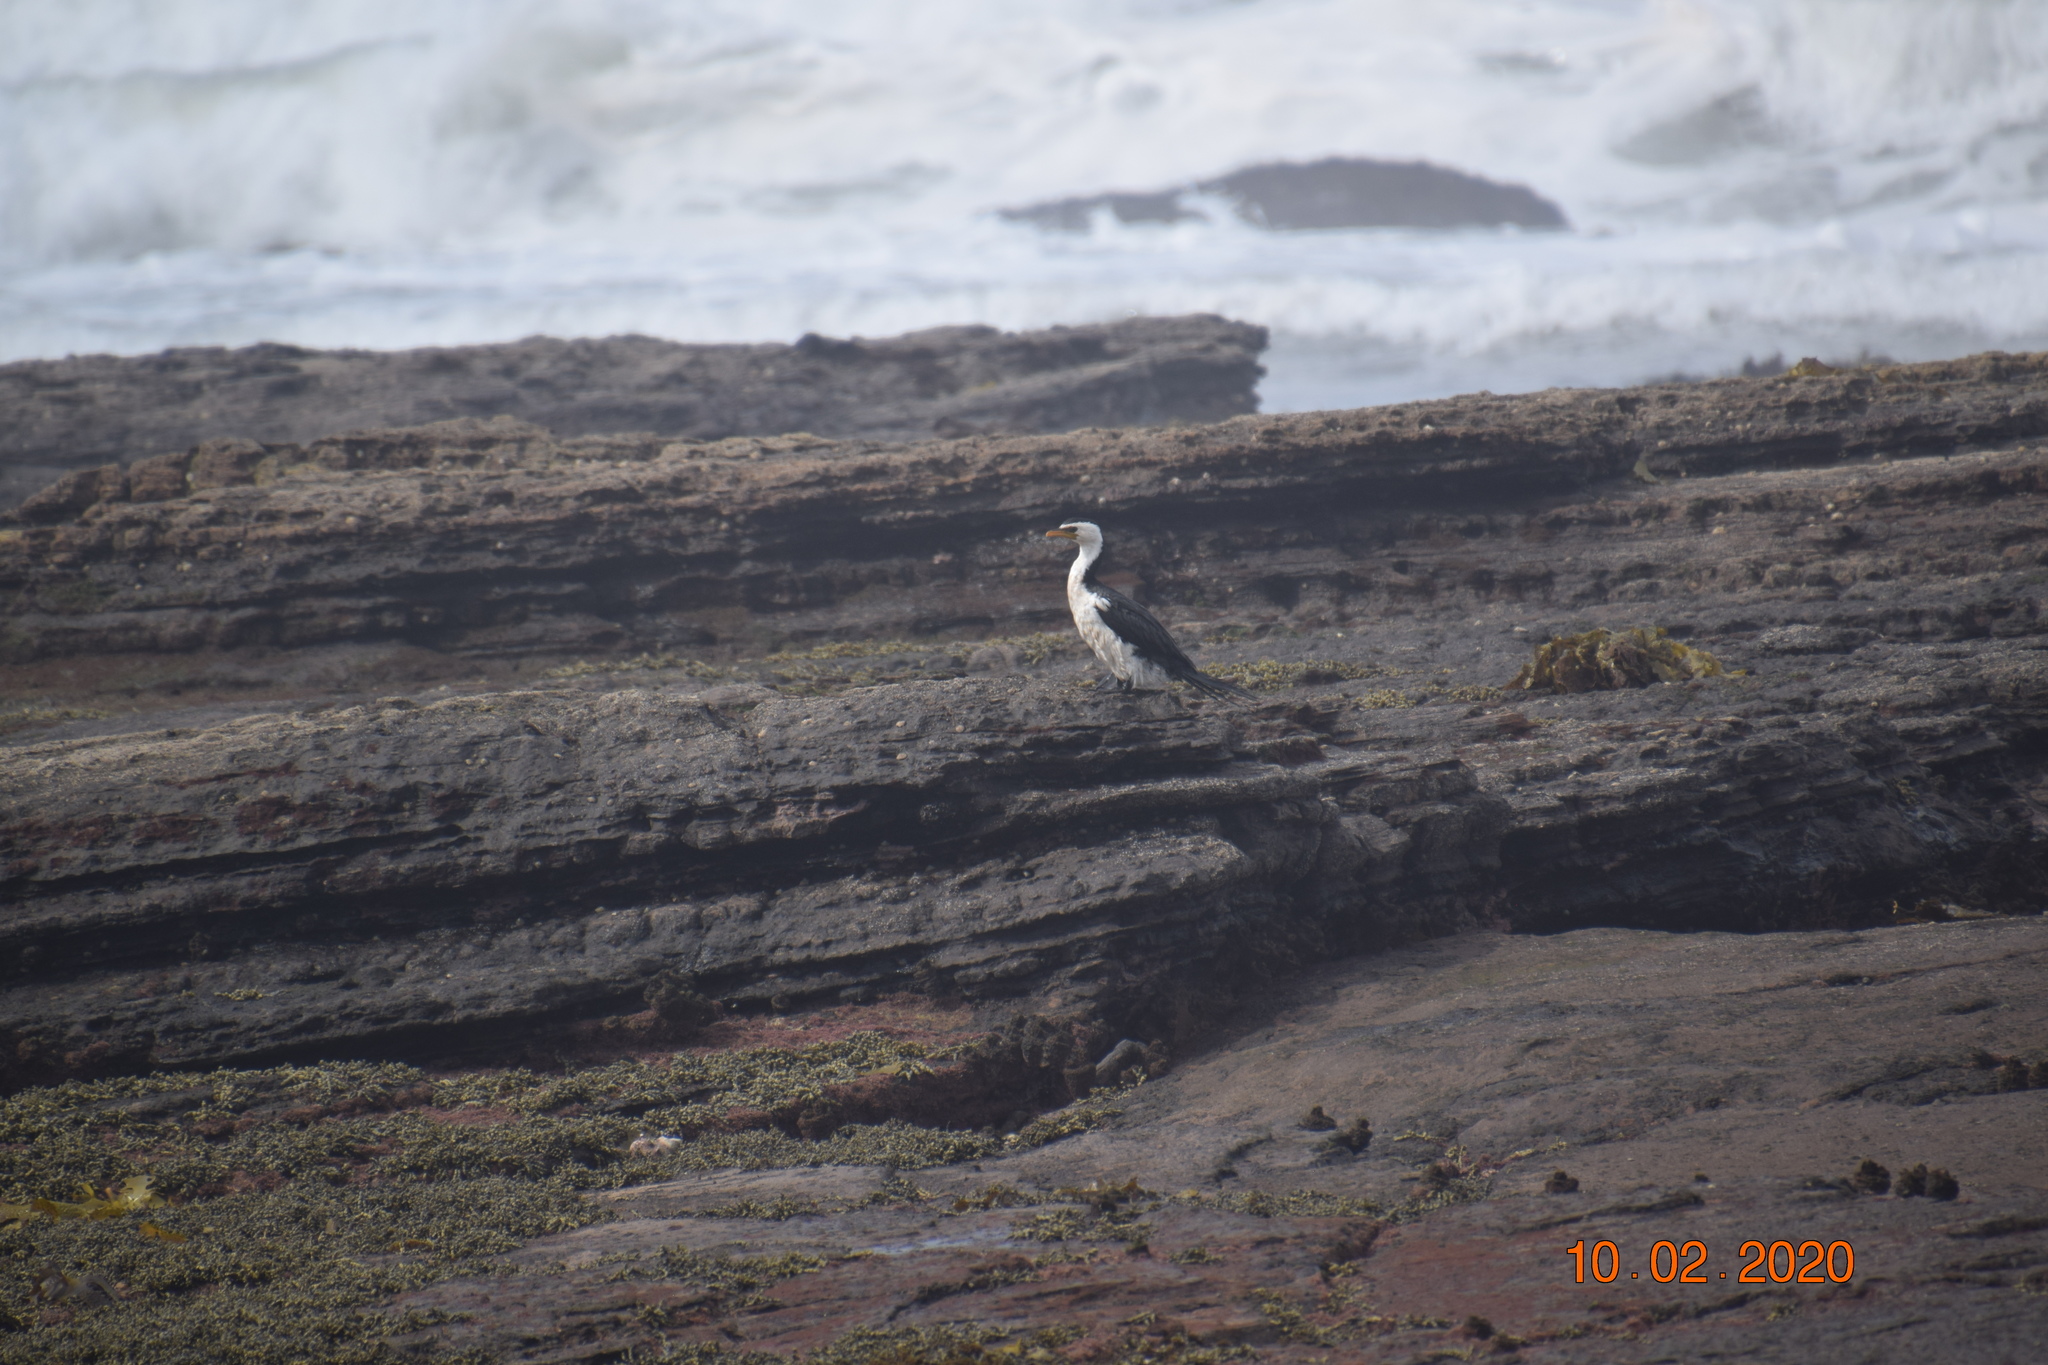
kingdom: Animalia
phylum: Chordata
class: Aves
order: Suliformes
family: Phalacrocoracidae
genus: Microcarbo
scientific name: Microcarbo melanoleucos
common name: Little pied cormorant
